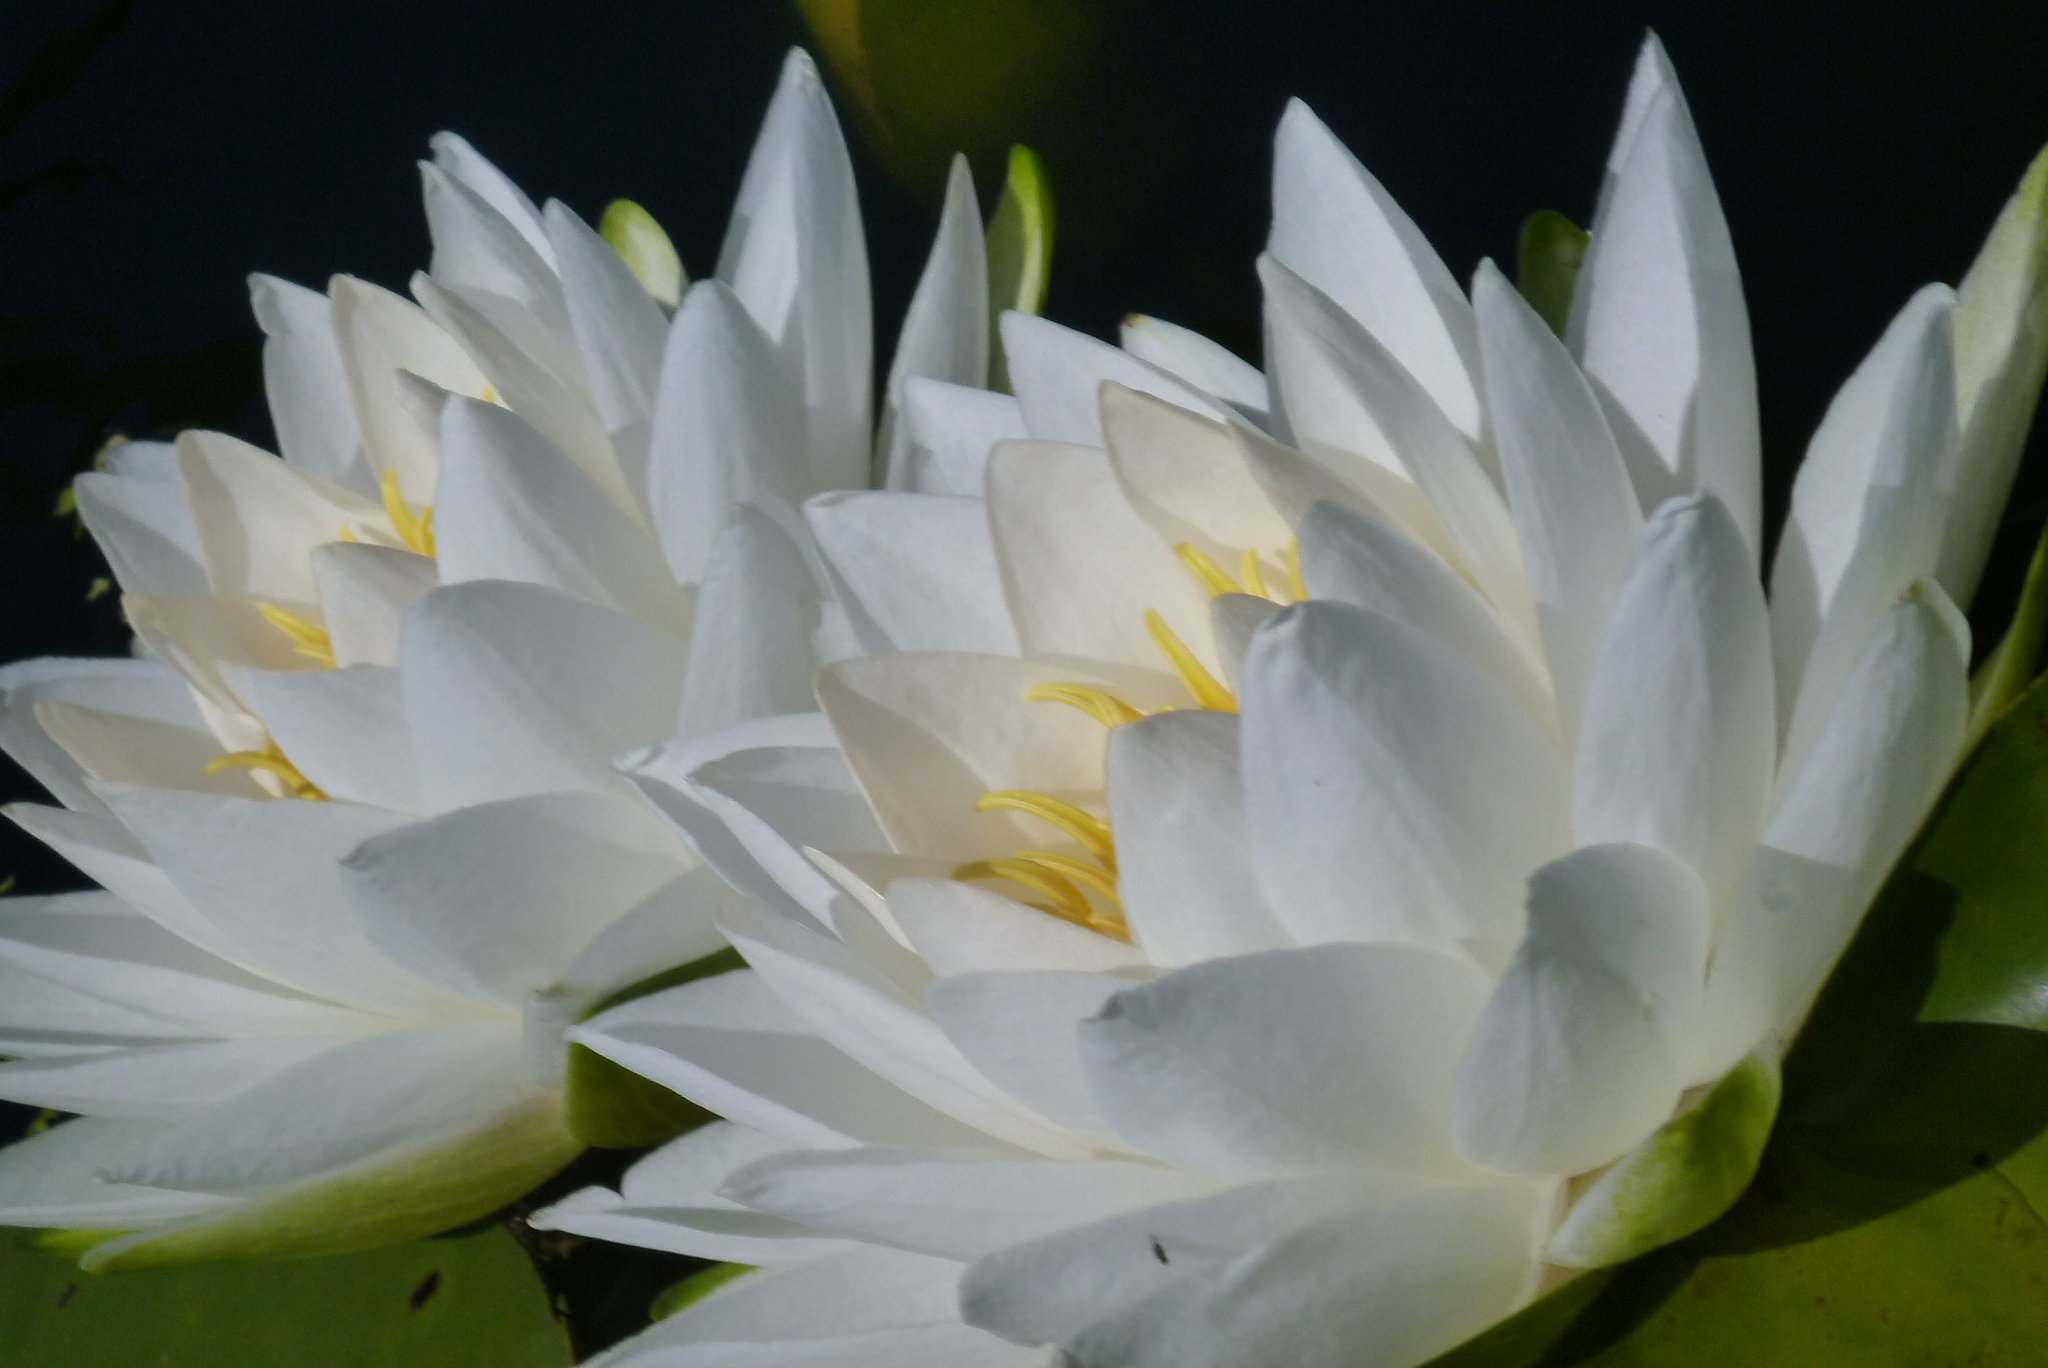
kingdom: Plantae
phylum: Tracheophyta
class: Magnoliopsida
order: Nymphaeales
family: Nymphaeaceae
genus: Nymphaea
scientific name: Nymphaea odorata
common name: Fragrant water-lily
